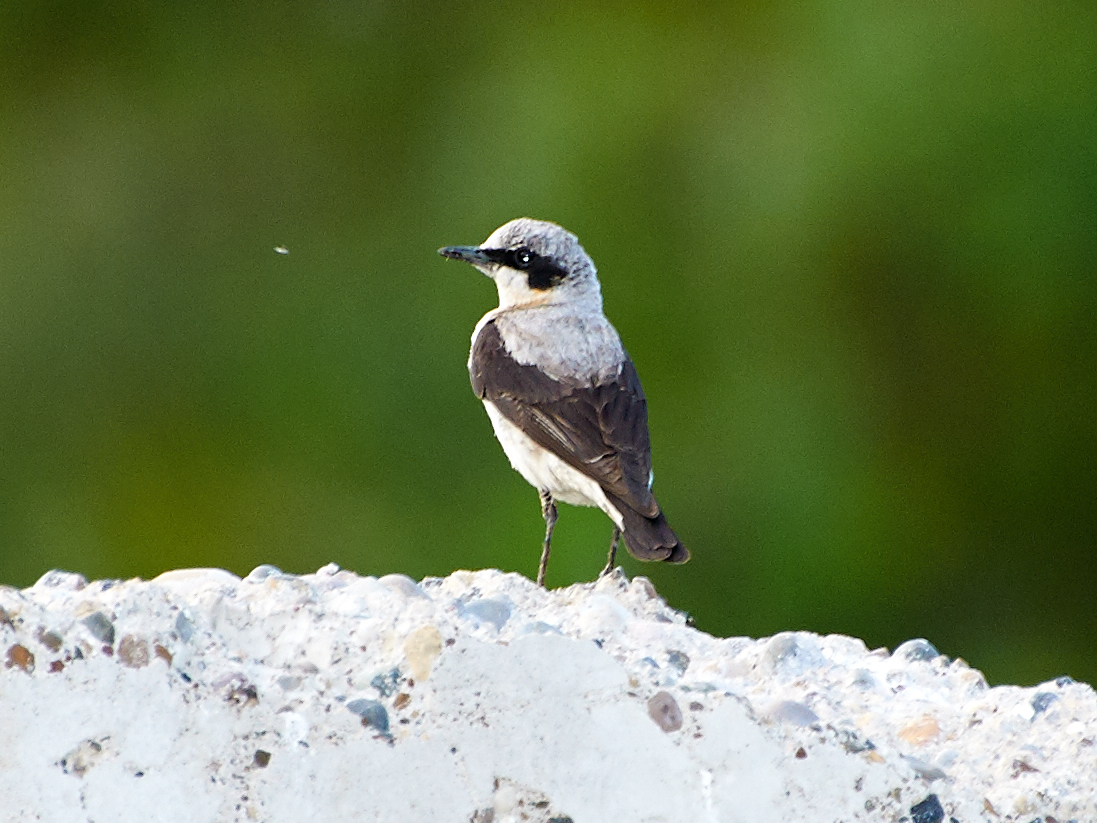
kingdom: Animalia
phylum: Chordata
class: Aves
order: Passeriformes
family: Muscicapidae
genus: Oenanthe
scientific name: Oenanthe oenanthe
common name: Northern wheatear
